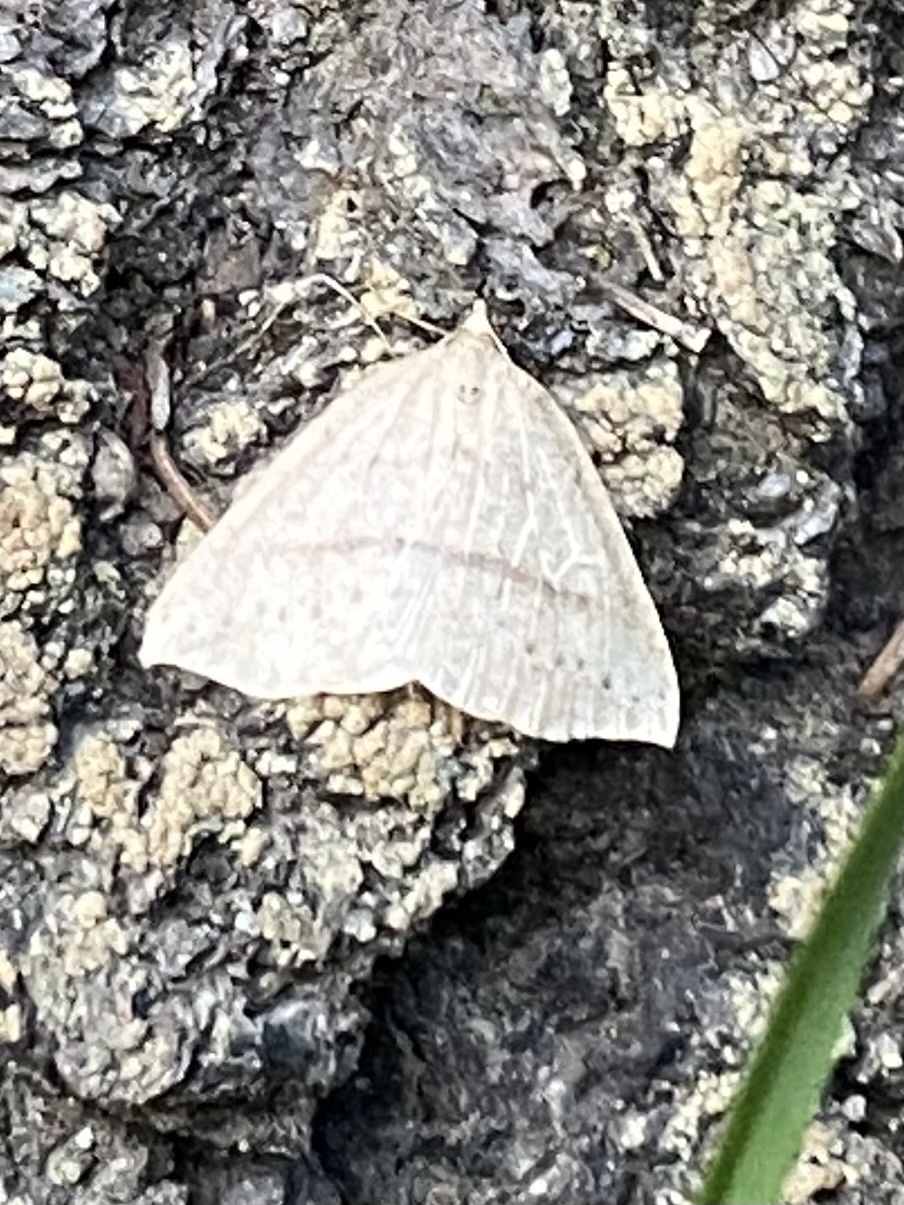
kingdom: Animalia
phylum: Arthropoda
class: Insecta
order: Lepidoptera
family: Geometridae
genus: Thallophaga
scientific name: Thallophaga taylorata
